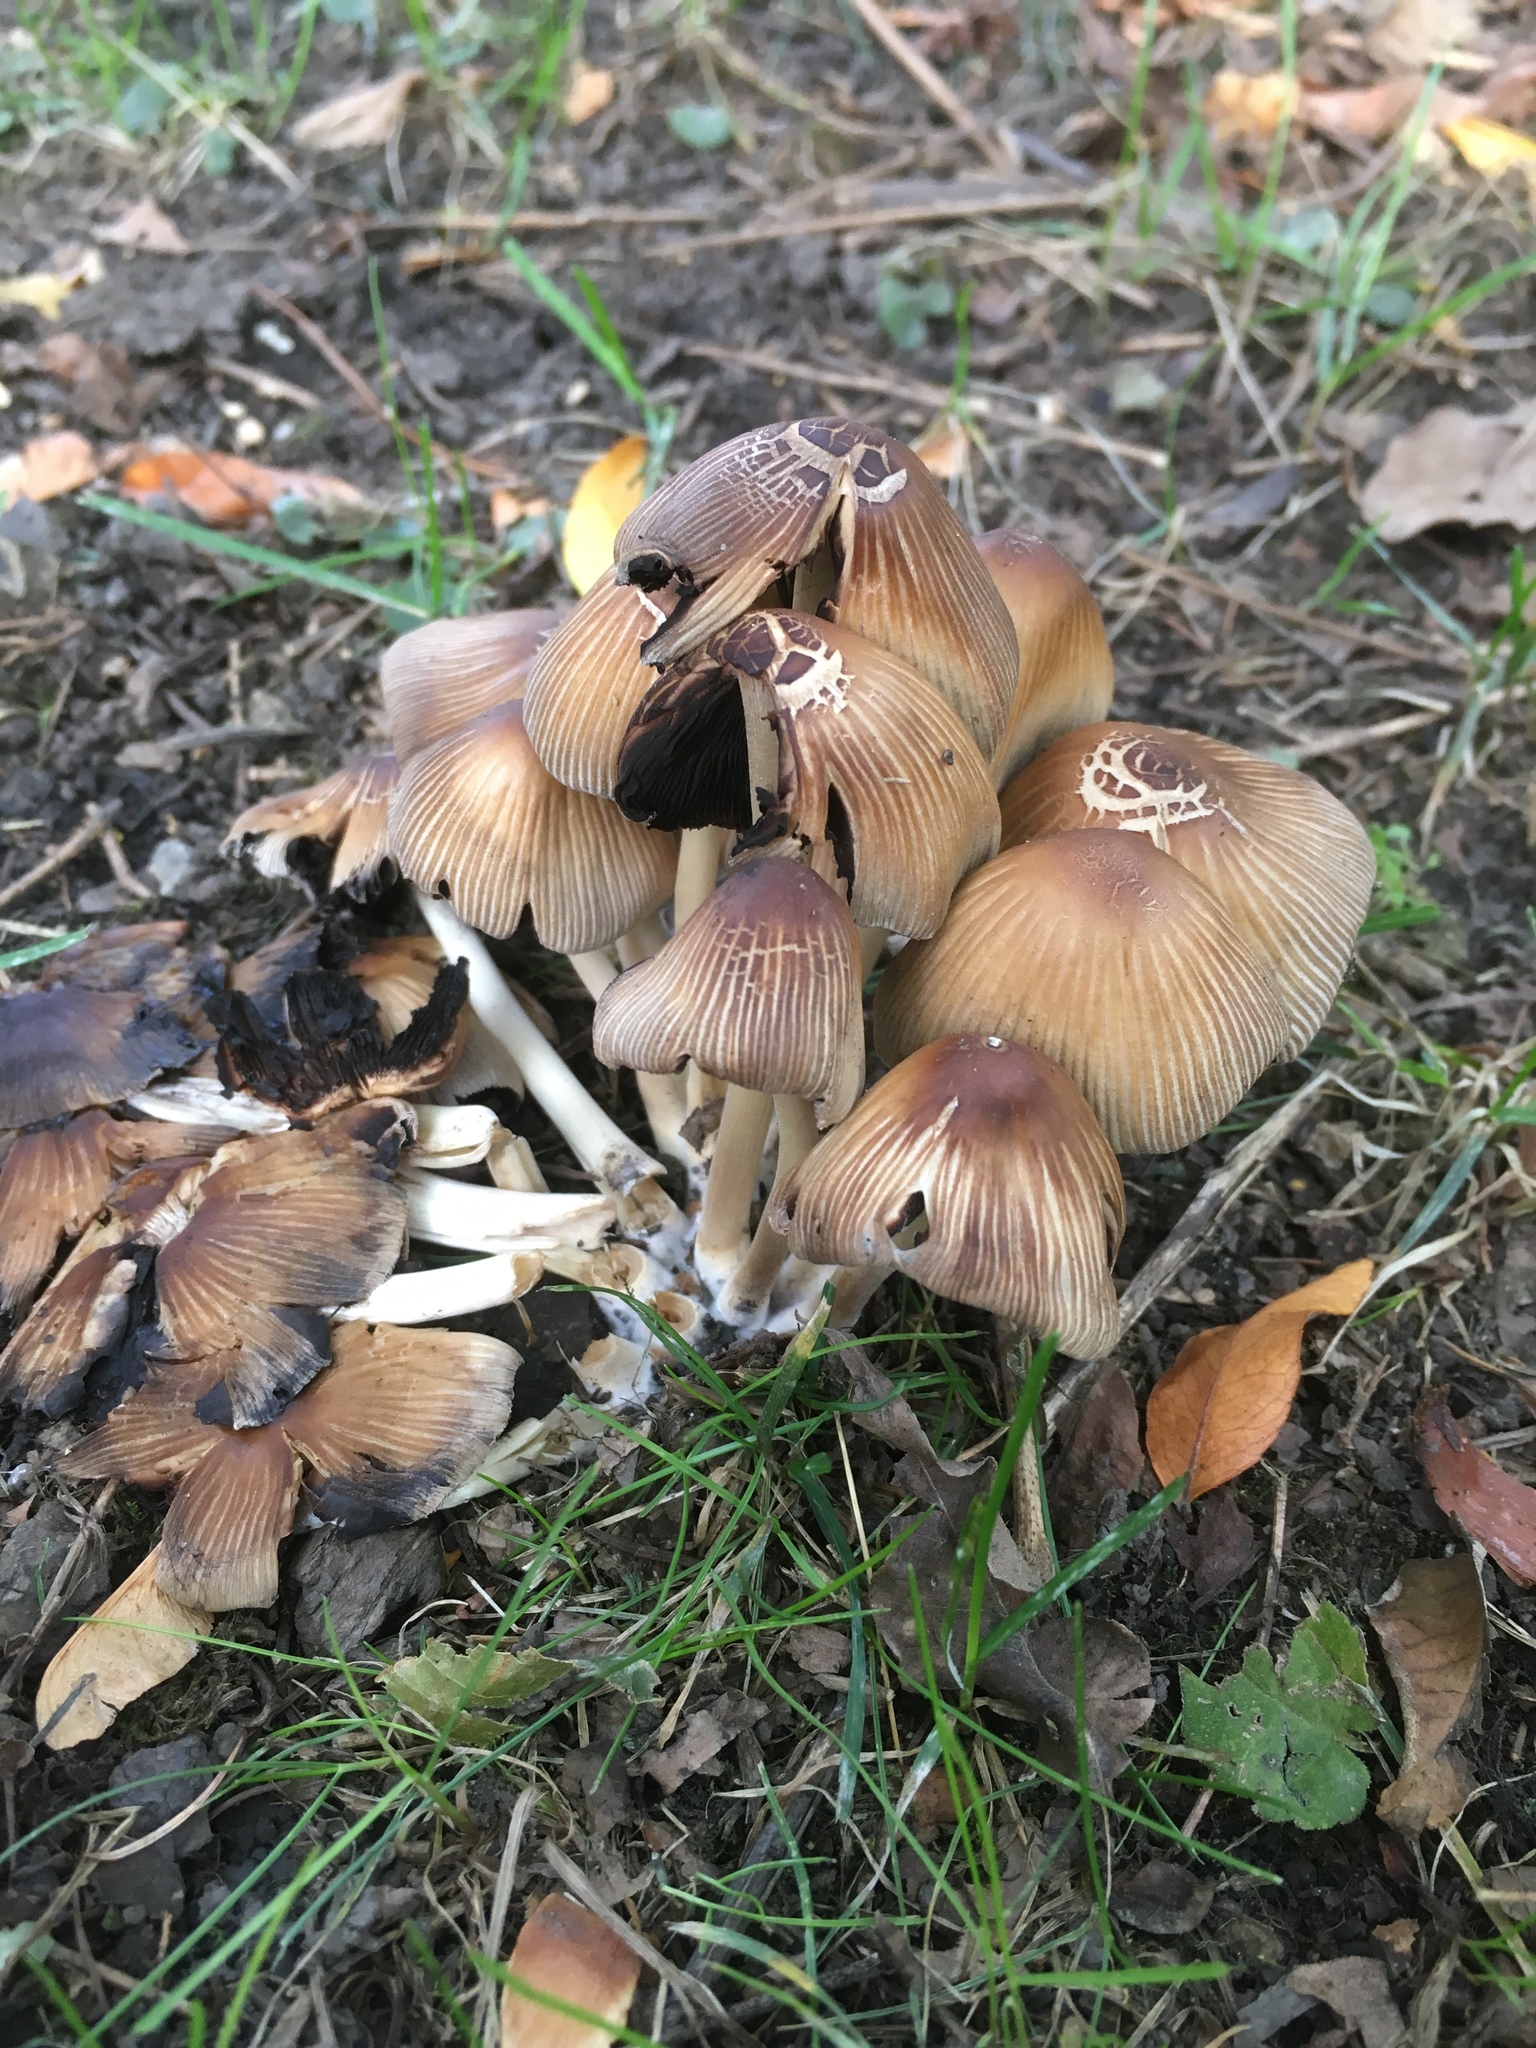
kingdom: Fungi
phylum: Basidiomycota
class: Agaricomycetes
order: Agaricales
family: Psathyrellaceae
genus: Coprinellus
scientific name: Coprinellus micaceus
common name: Glistening ink-cap
